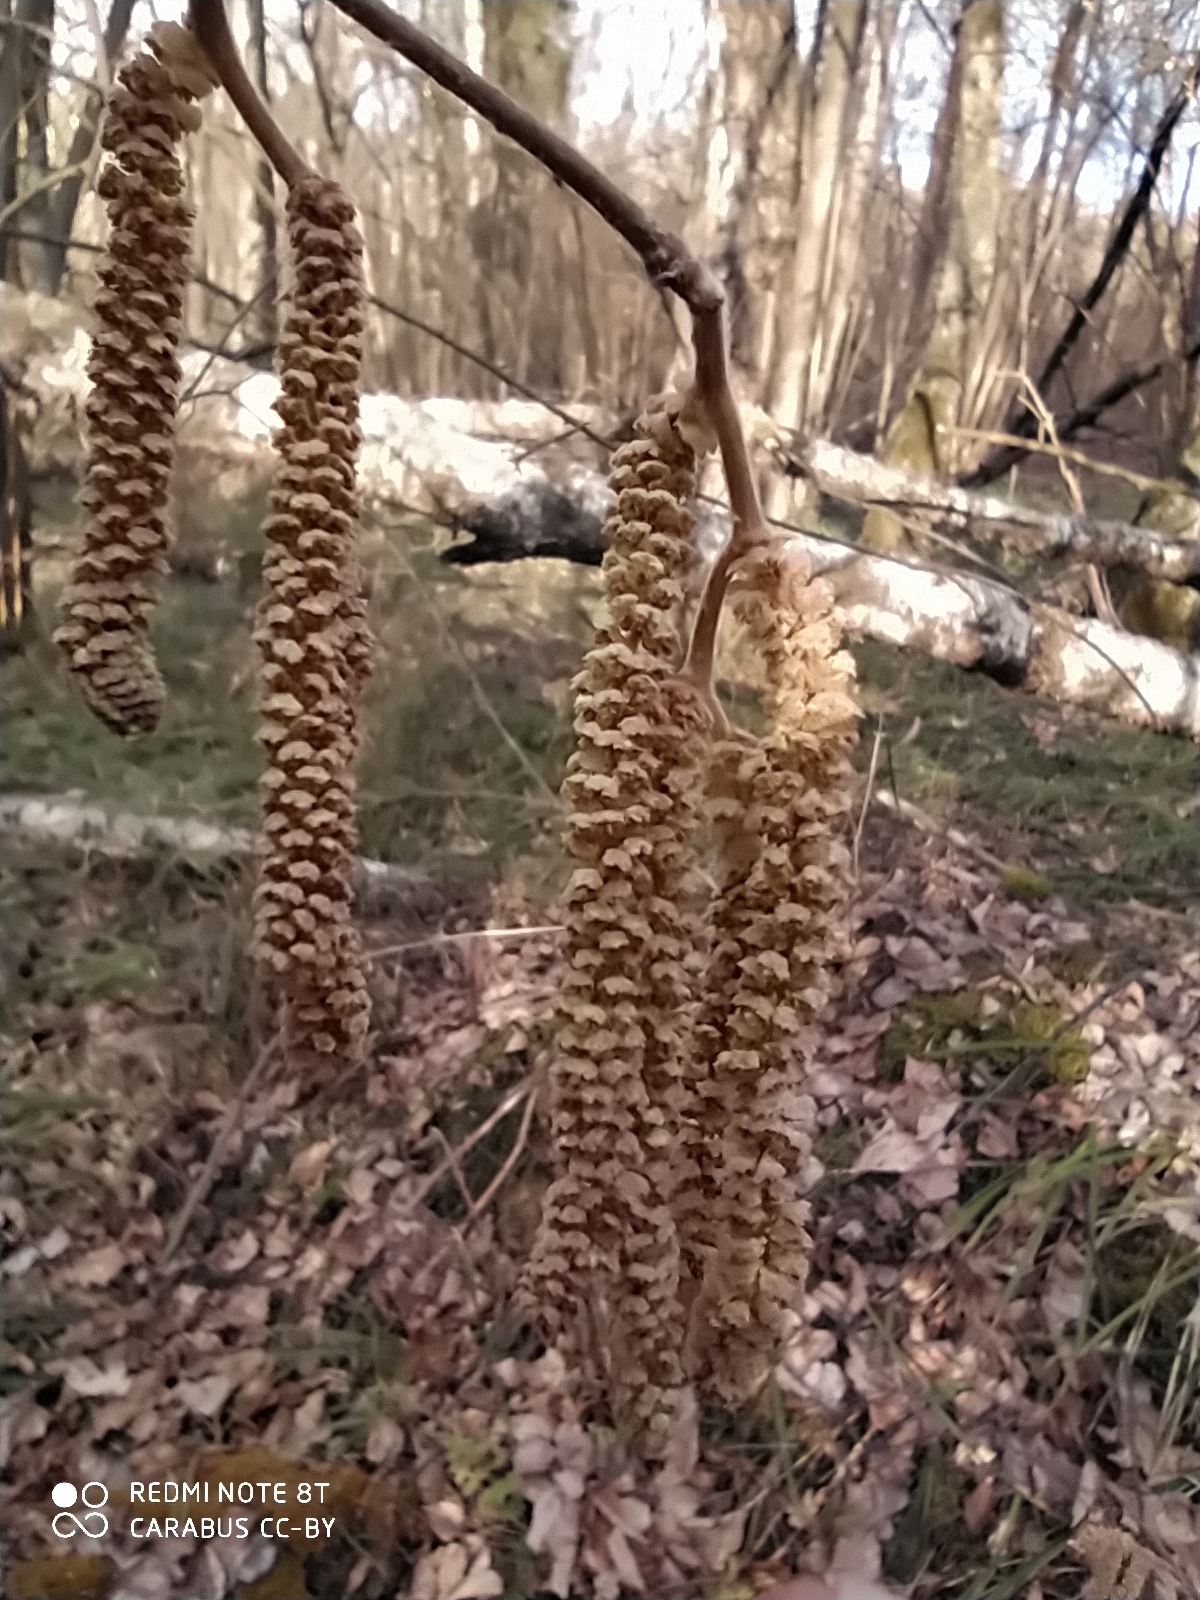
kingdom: Plantae
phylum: Tracheophyta
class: Magnoliopsida
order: Fagales
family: Betulaceae
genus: Corylus
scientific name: Corylus avellana
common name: European hazel
